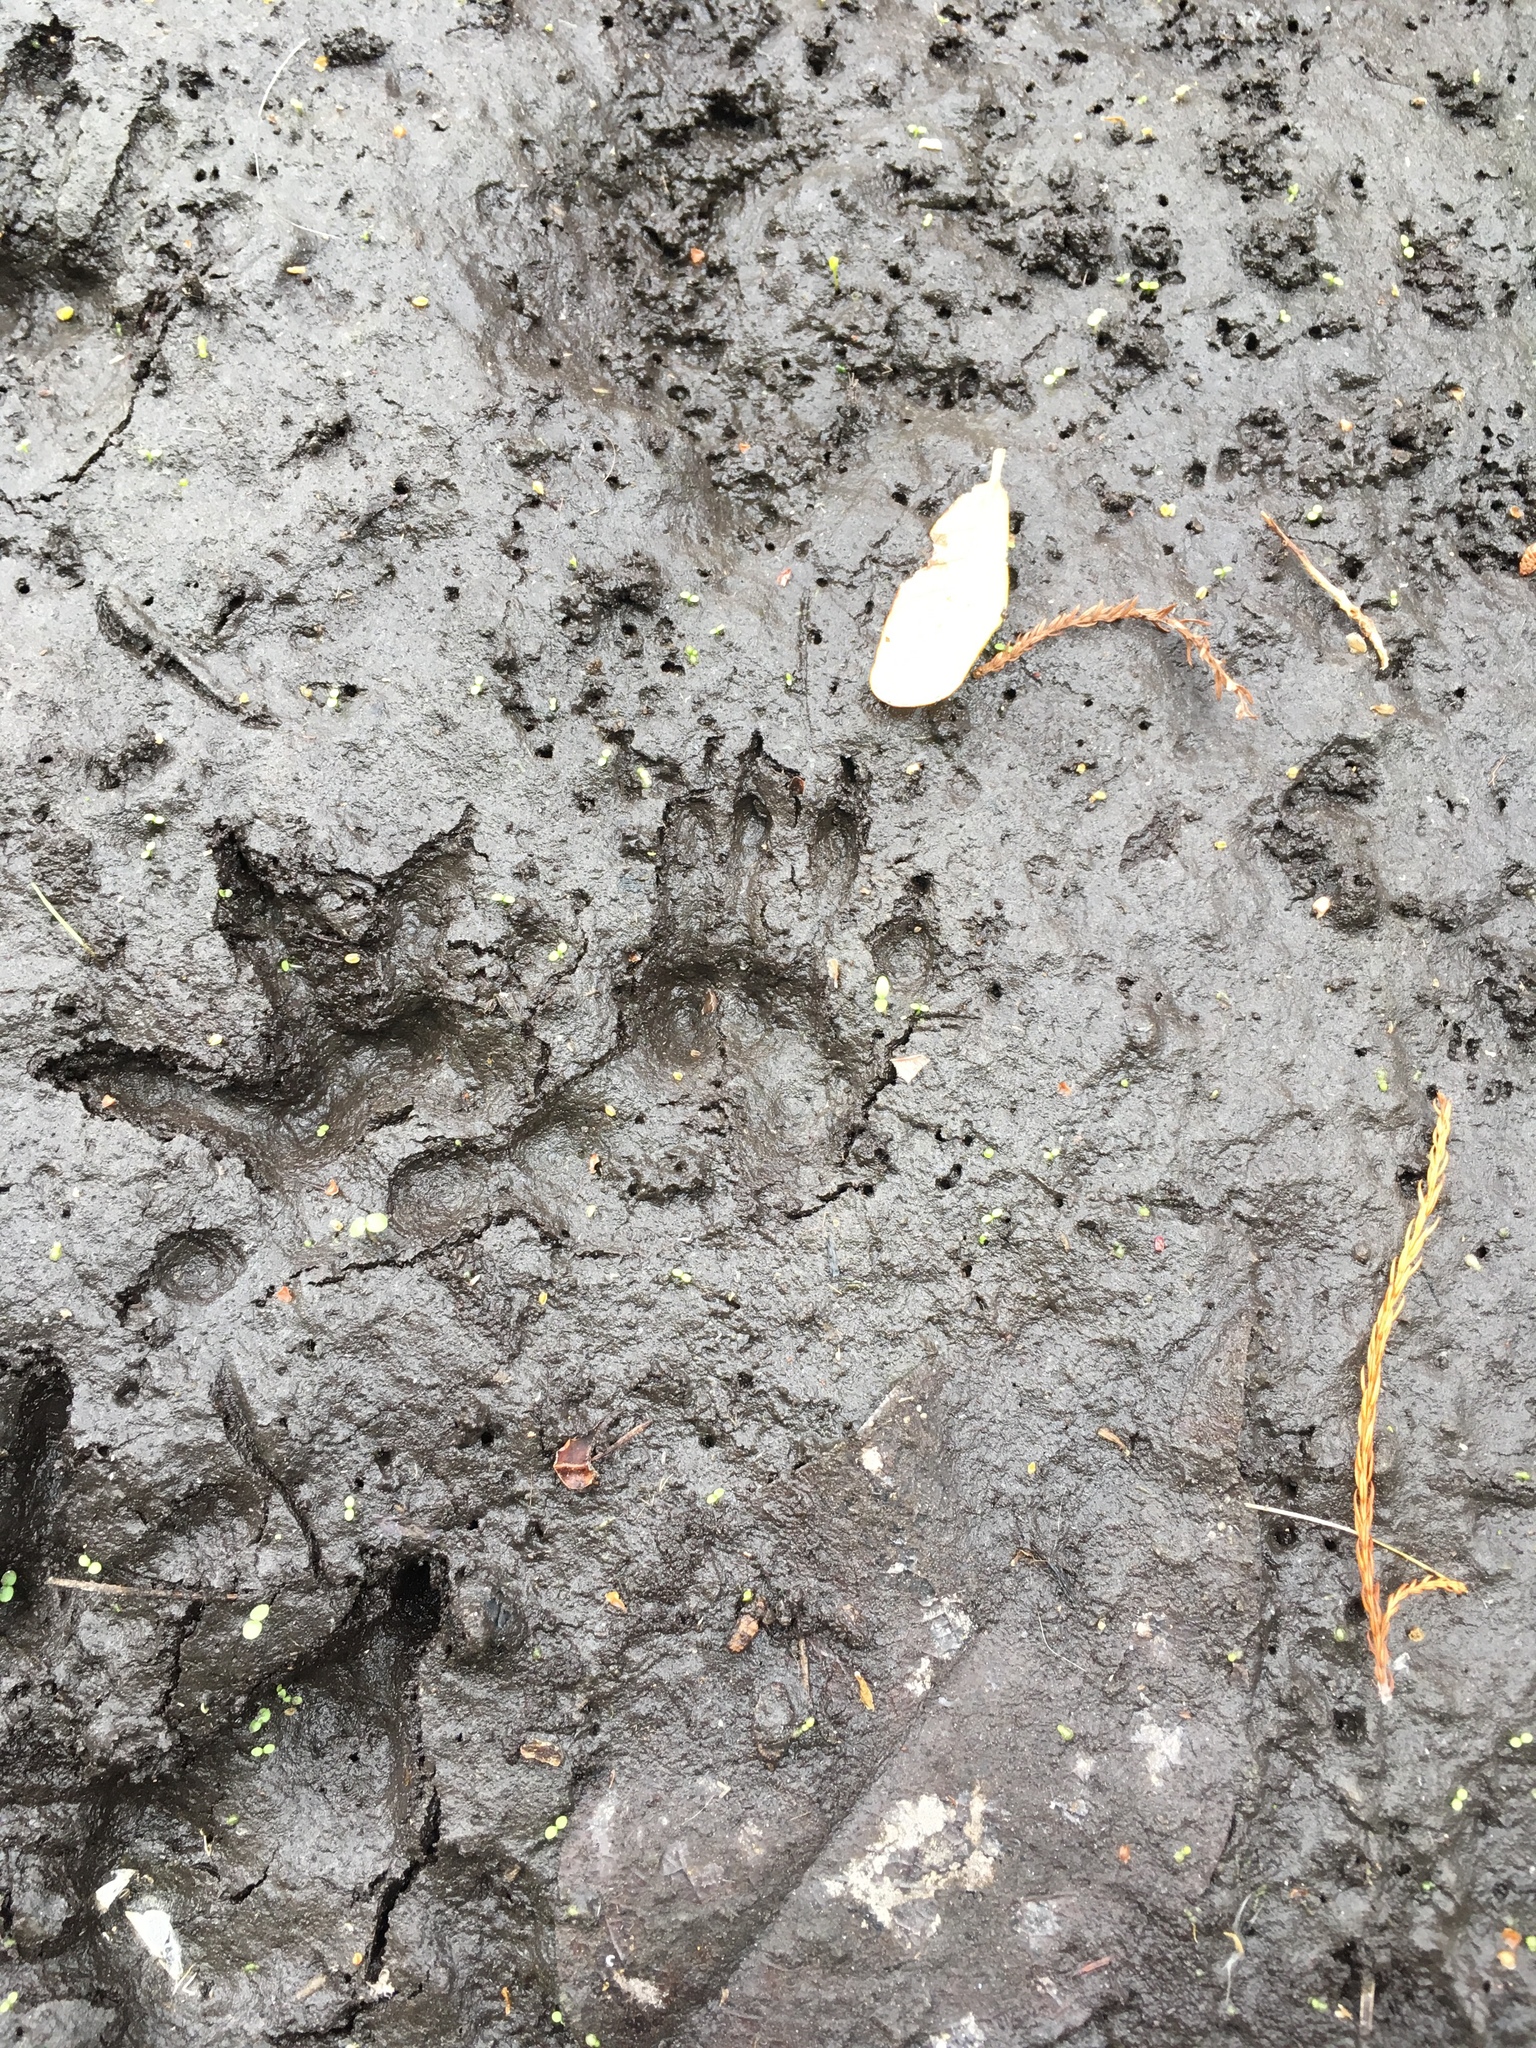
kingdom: Animalia
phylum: Chordata
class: Mammalia
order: Didelphimorphia
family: Didelphidae
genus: Didelphis
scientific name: Didelphis virginiana
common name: Virginia opossum
